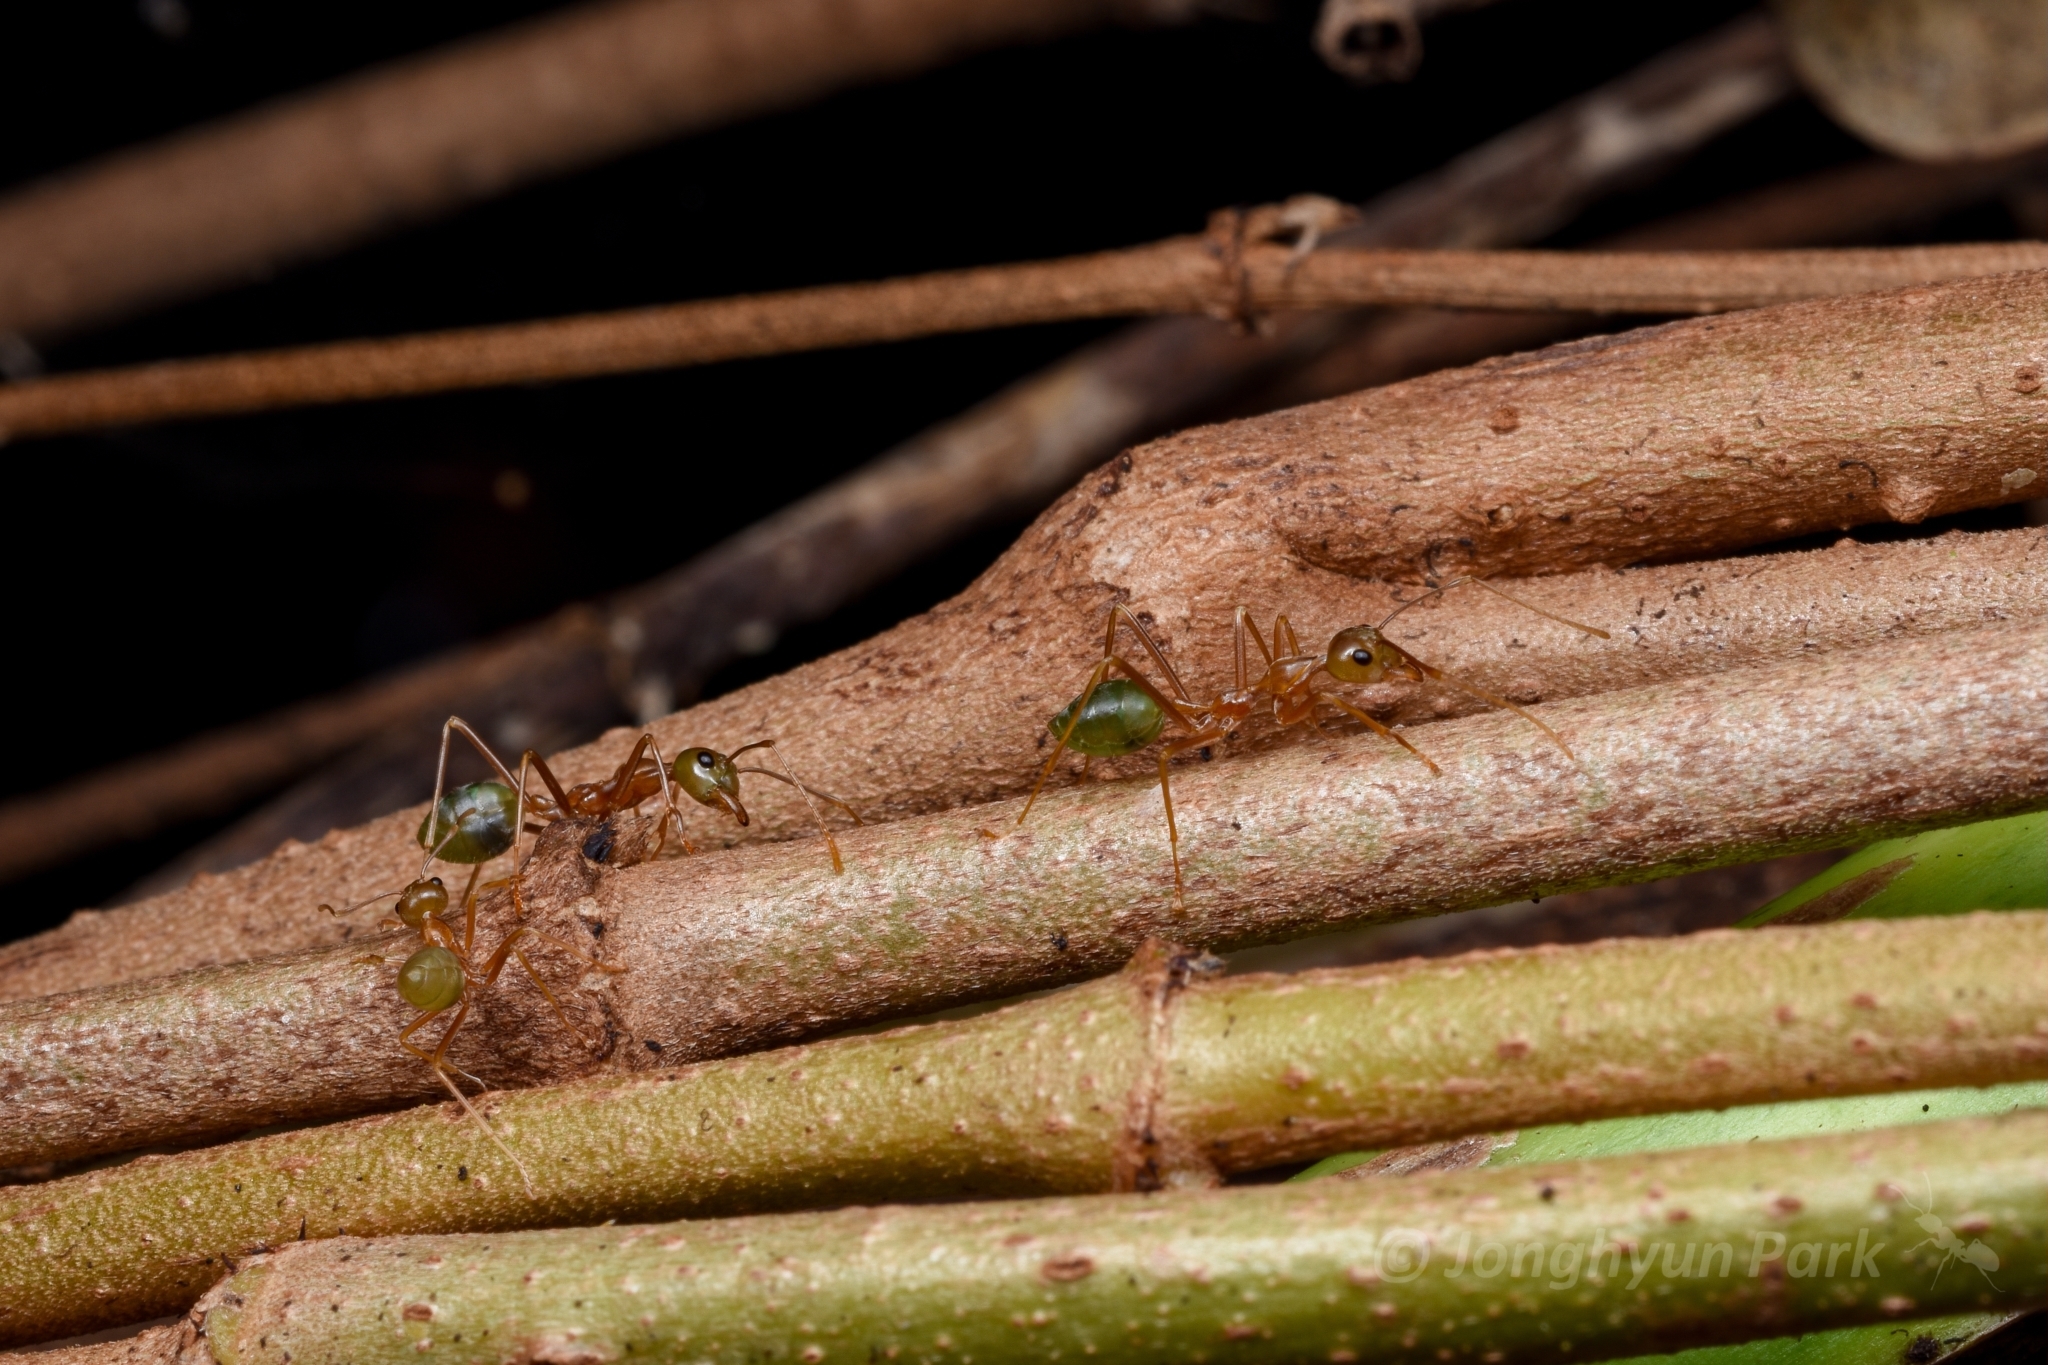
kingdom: Animalia
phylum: Arthropoda
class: Insecta
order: Hymenoptera
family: Formicidae
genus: Oecophylla
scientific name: Oecophylla smaragdina
